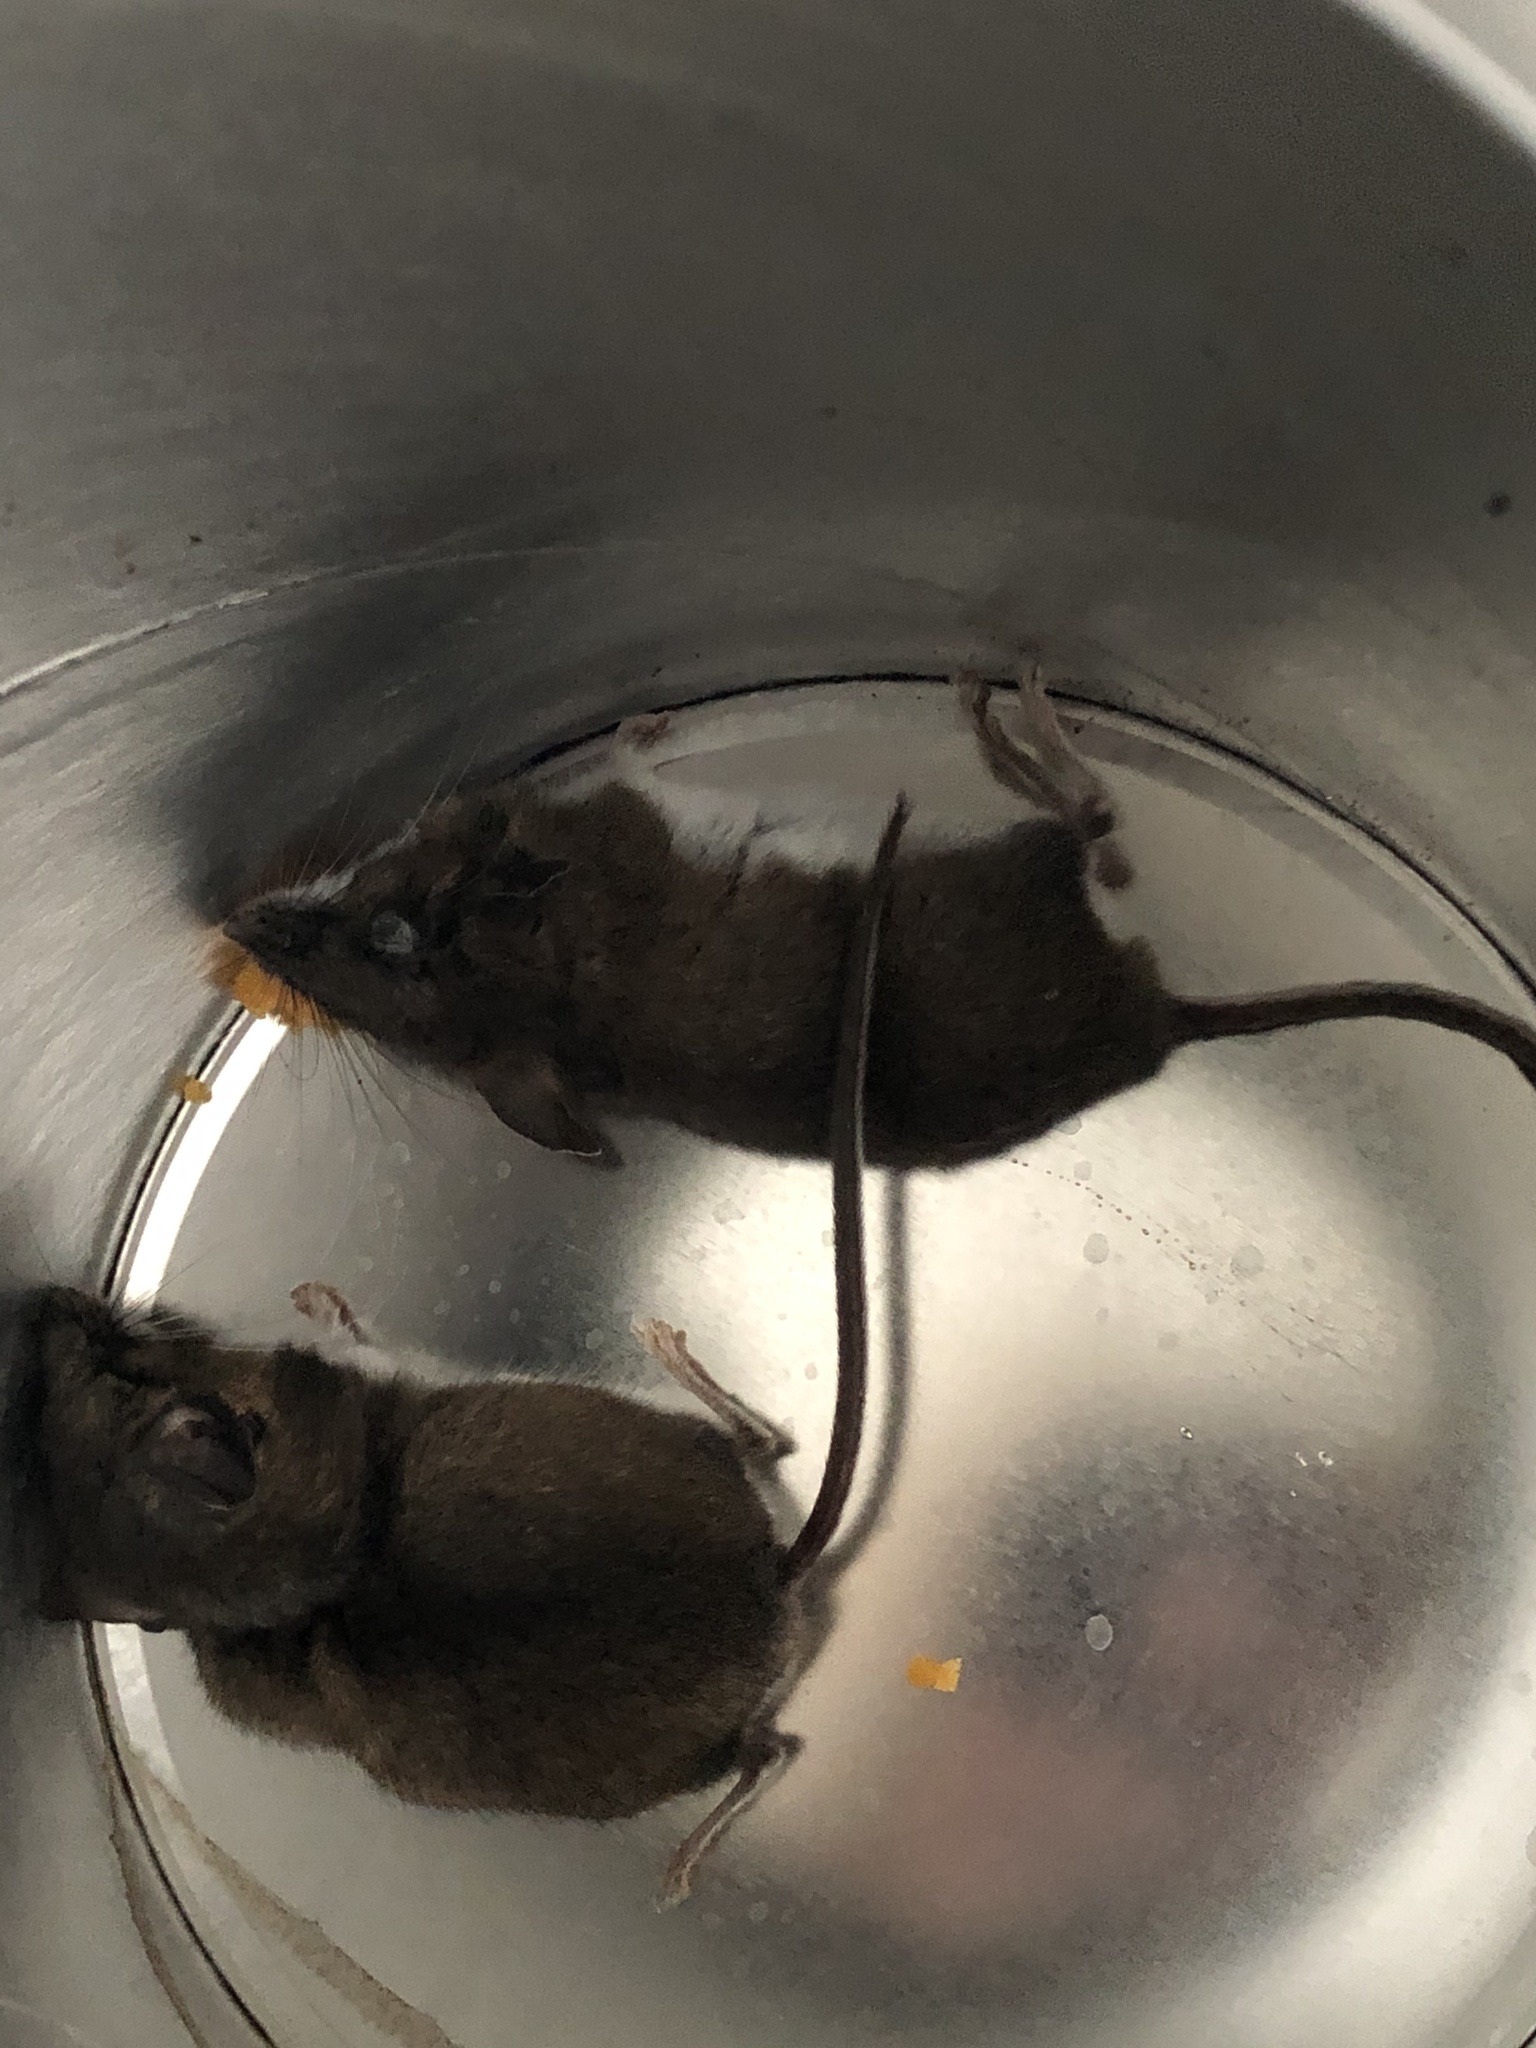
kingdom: Animalia
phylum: Chordata
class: Mammalia
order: Rodentia
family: Cricetidae
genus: Peromyscus
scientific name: Peromyscus maniculatus
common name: Deer mouse
